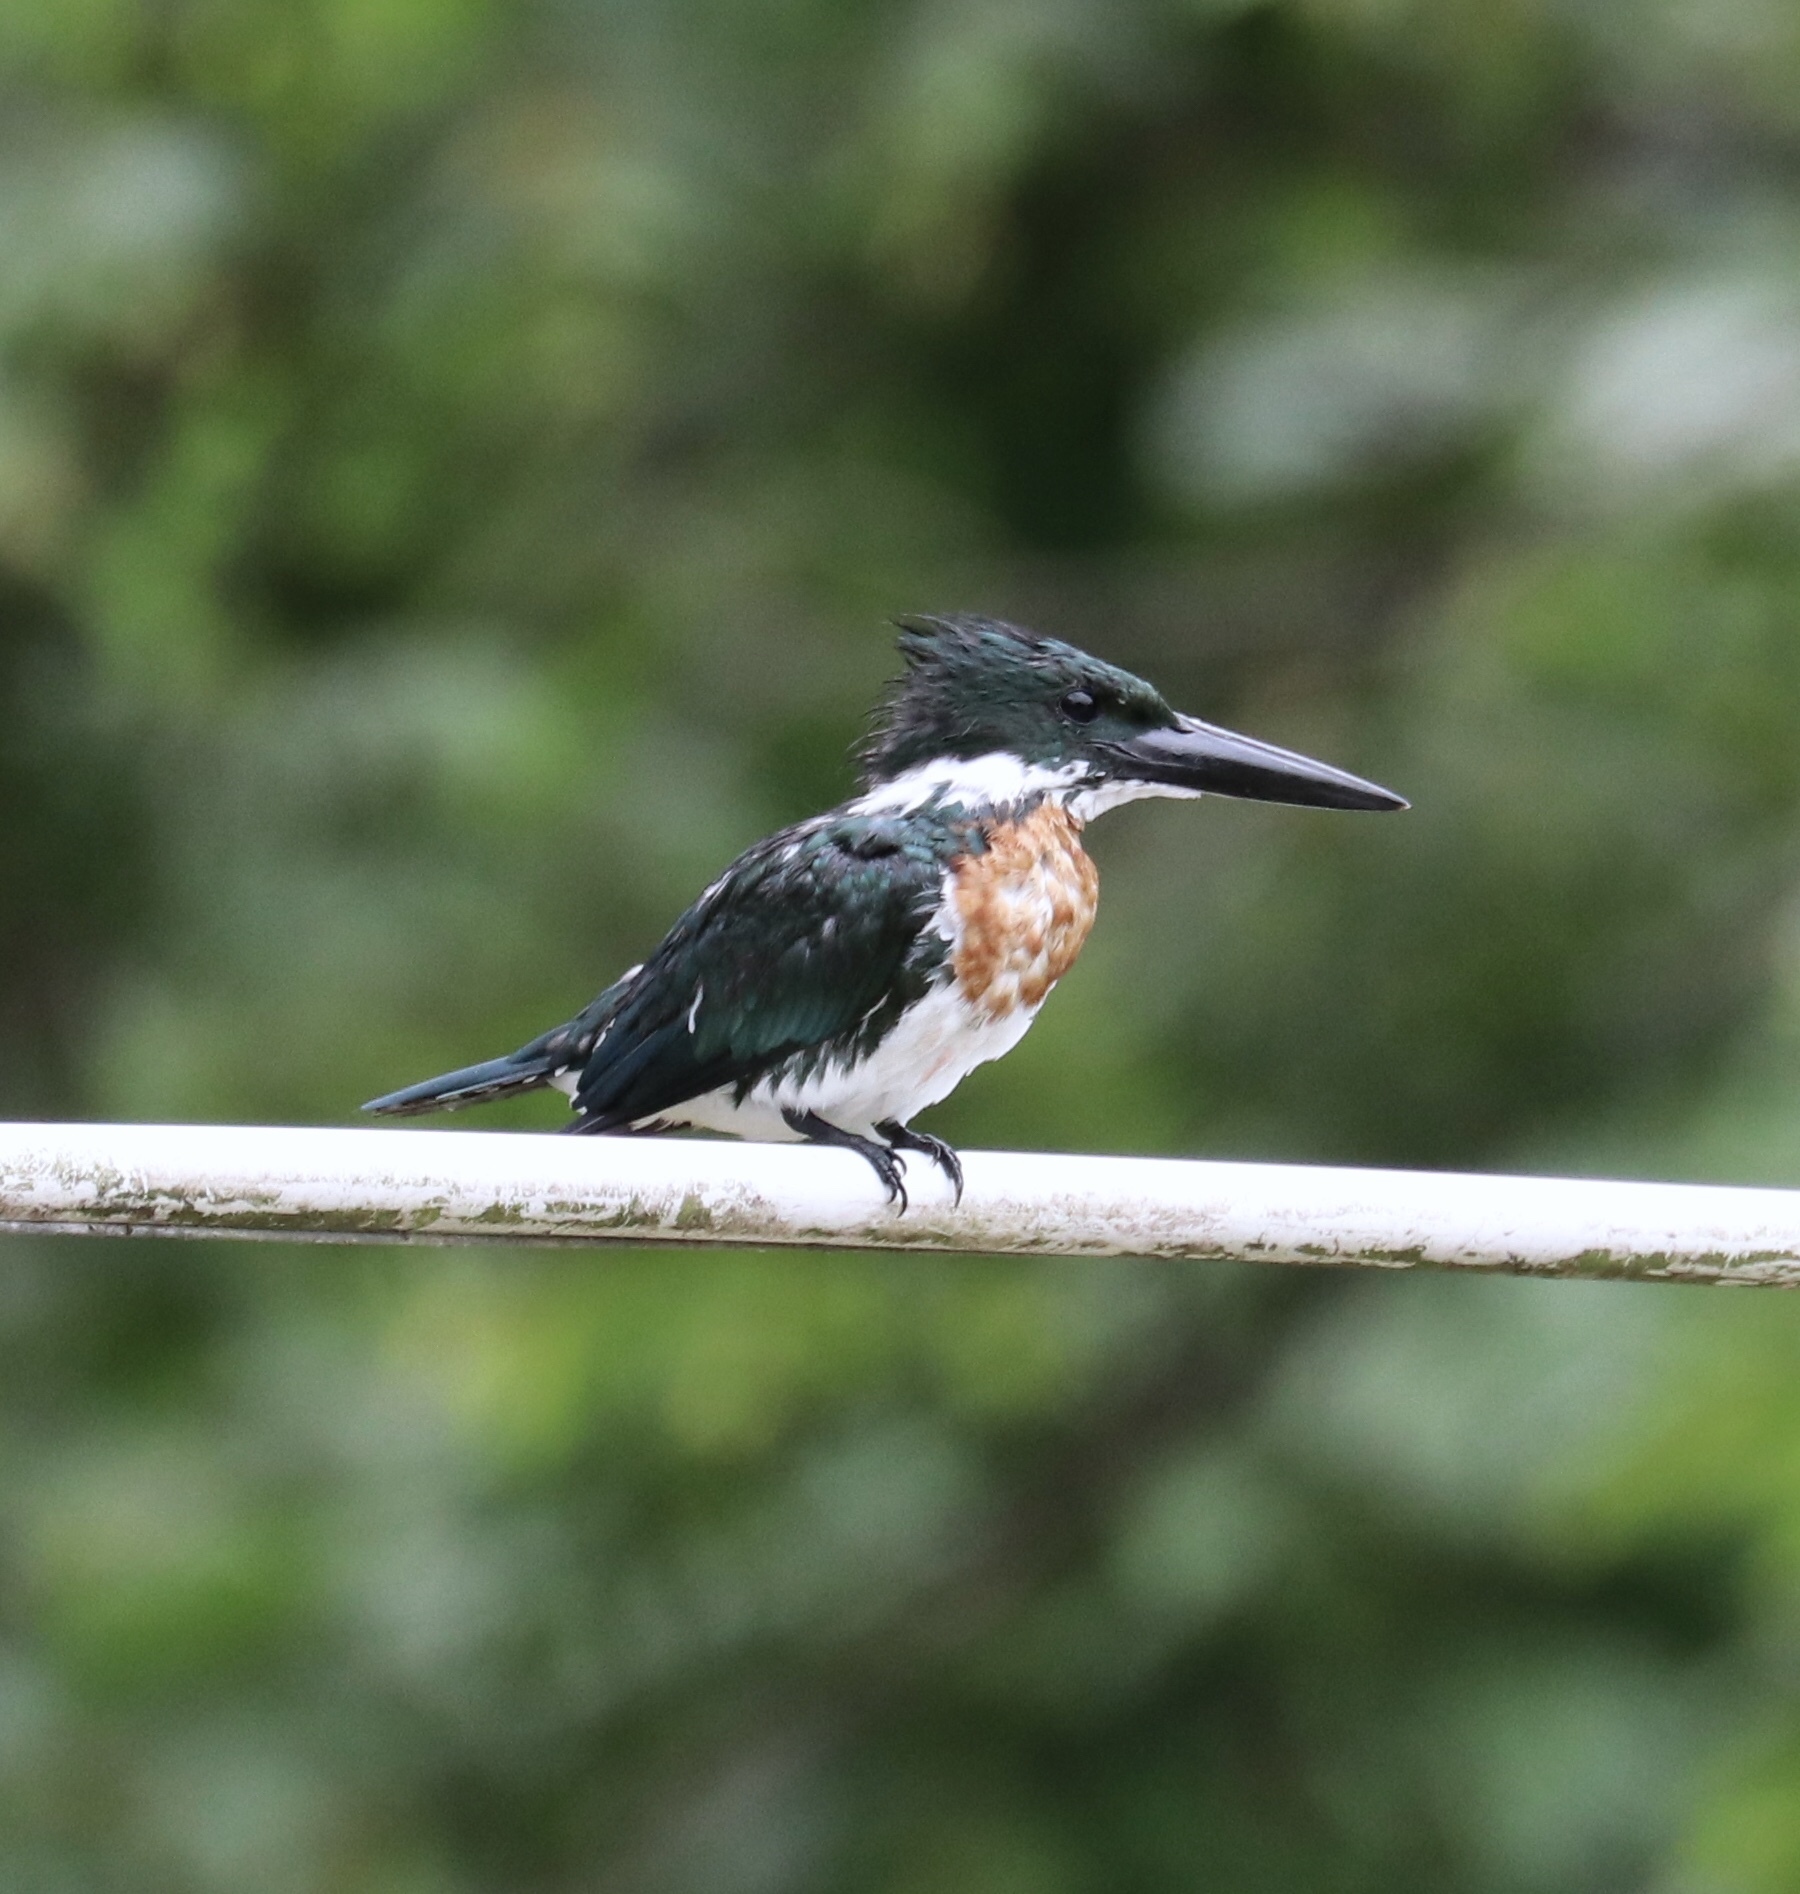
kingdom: Animalia
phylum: Chordata
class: Aves
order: Coraciiformes
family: Alcedinidae
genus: Chloroceryle
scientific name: Chloroceryle amazona
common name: Amazon kingfisher
